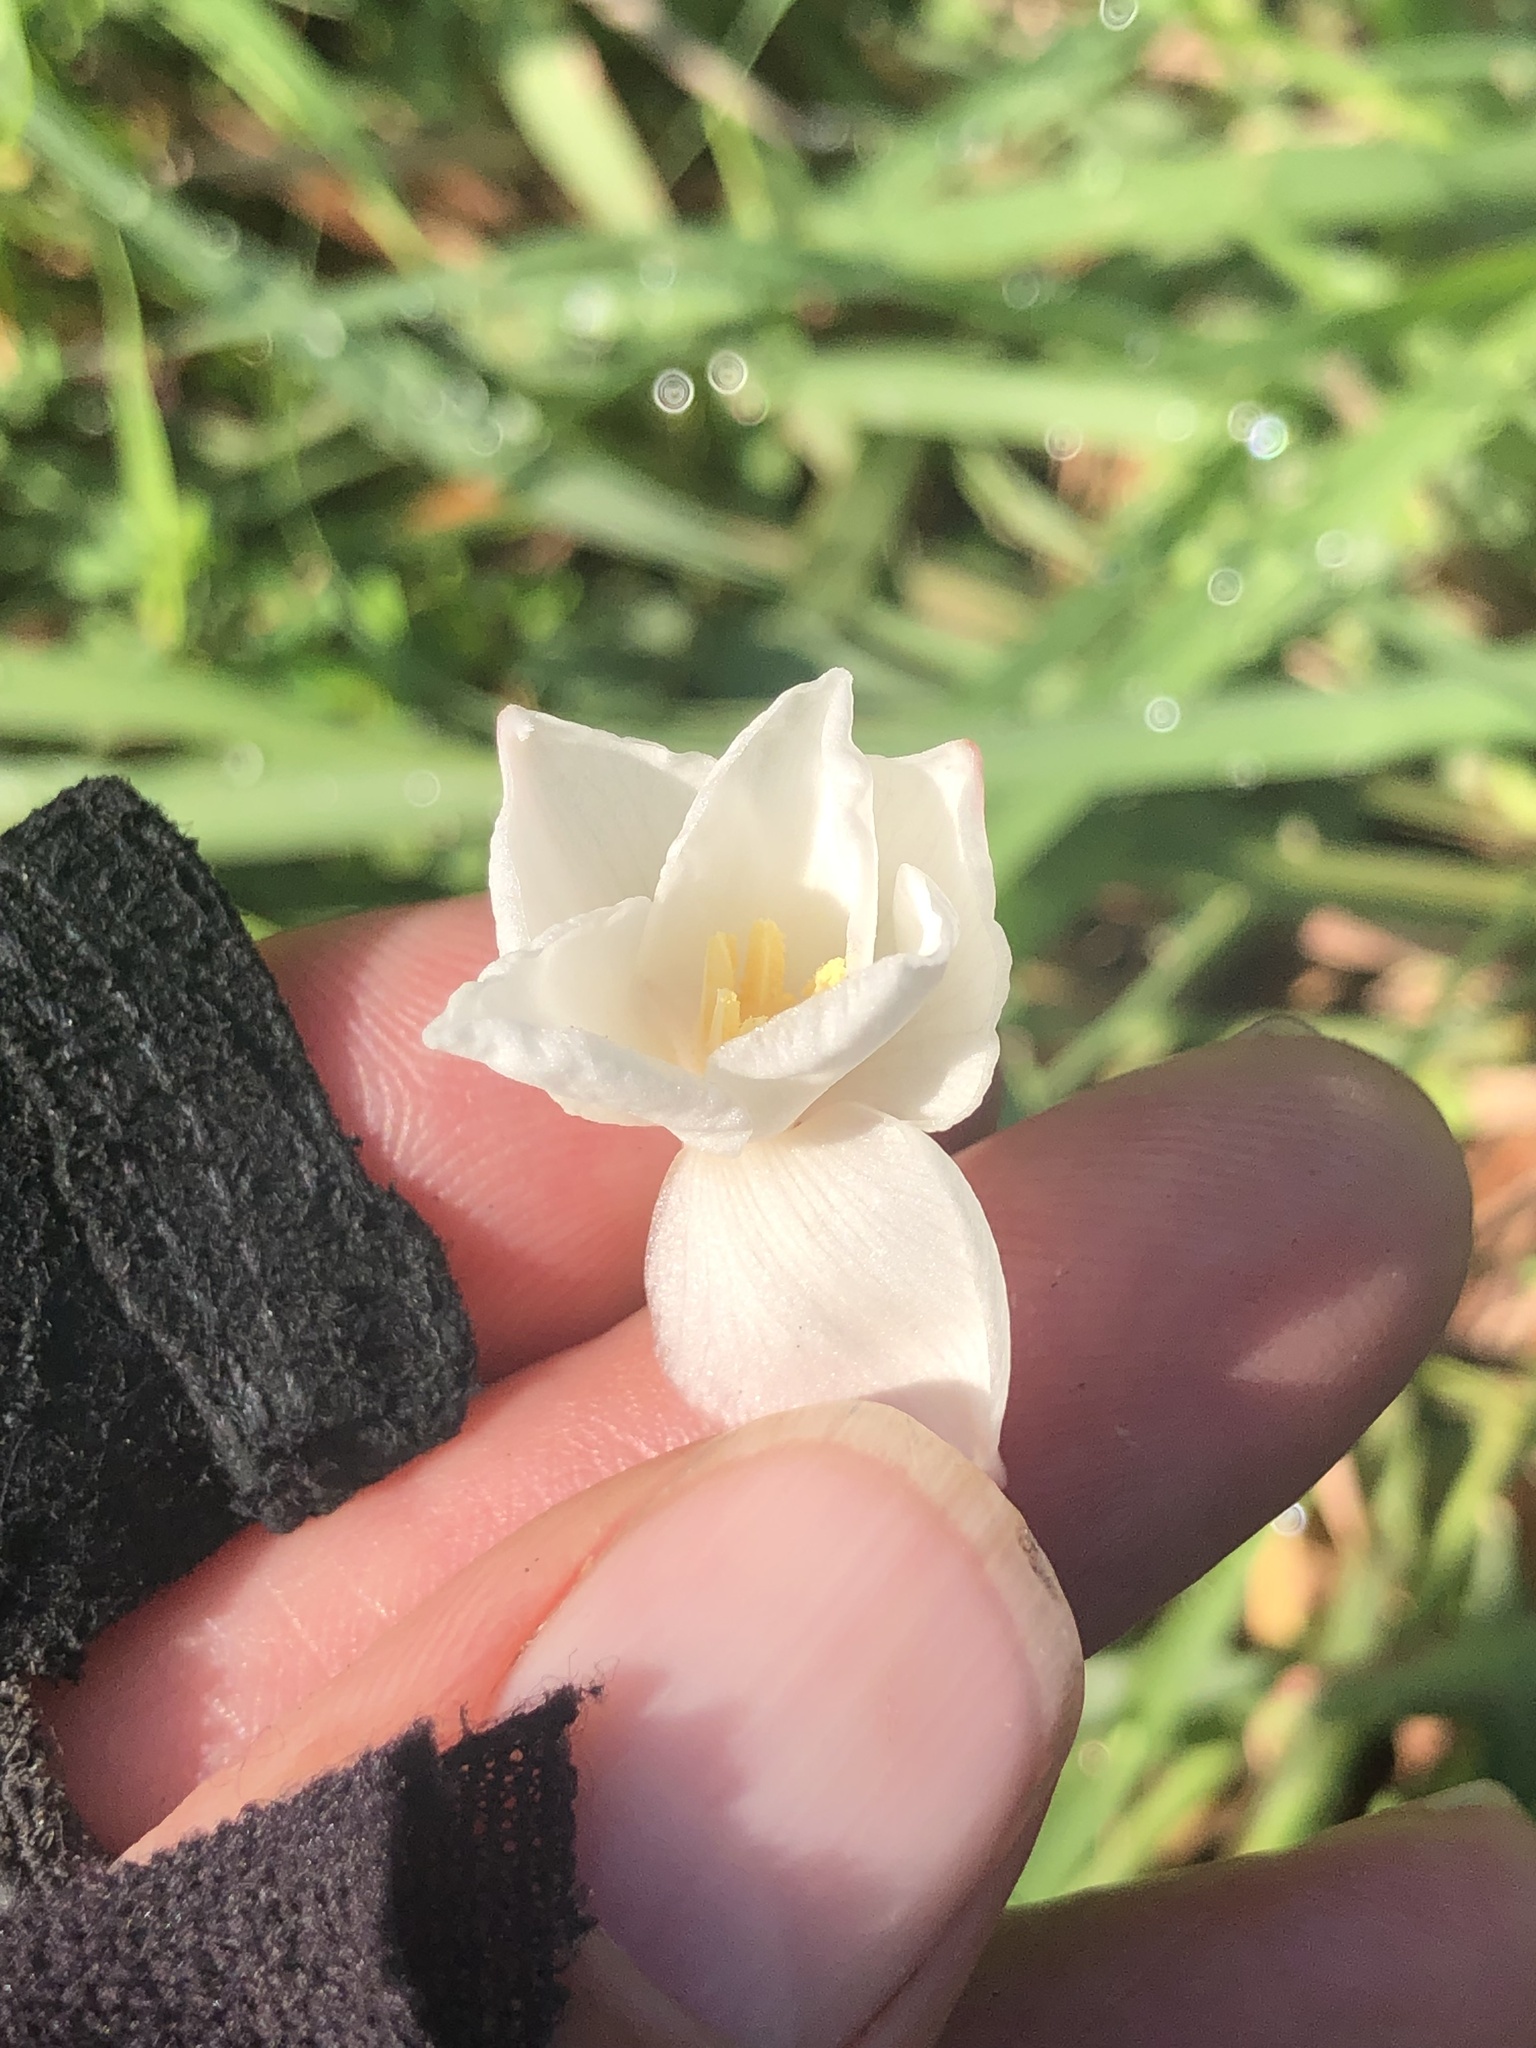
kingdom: Plantae
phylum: Tracheophyta
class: Liliopsida
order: Asparagales
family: Amaryllidaceae
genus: Zephyranthes
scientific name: Zephyranthes chlorosolen
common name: Evening rain-lily
